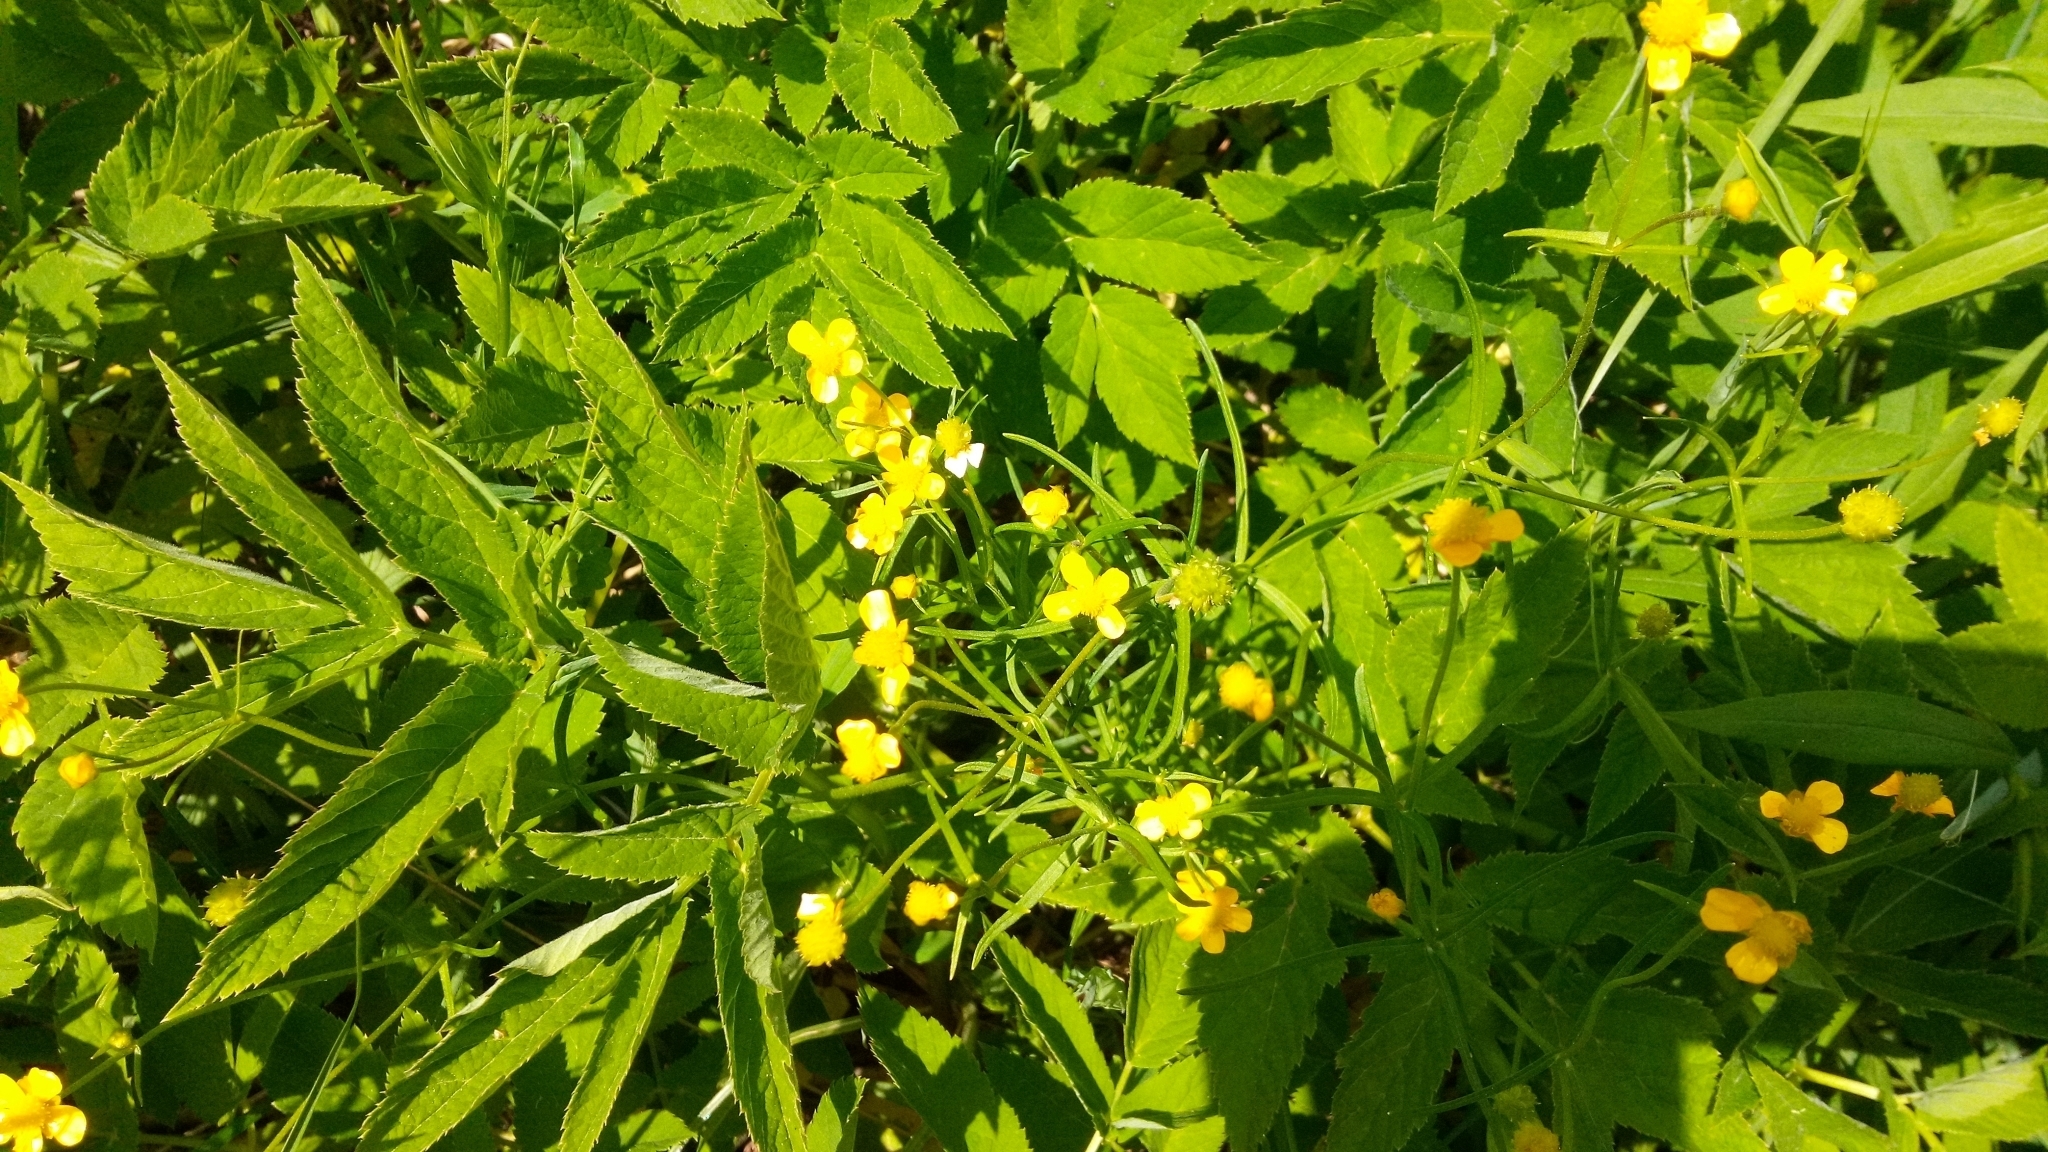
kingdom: Plantae
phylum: Tracheophyta
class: Magnoliopsida
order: Ranunculales
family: Ranunculaceae
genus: Ranunculus
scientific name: Ranunculus auricomus
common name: Goldilocks buttercup
